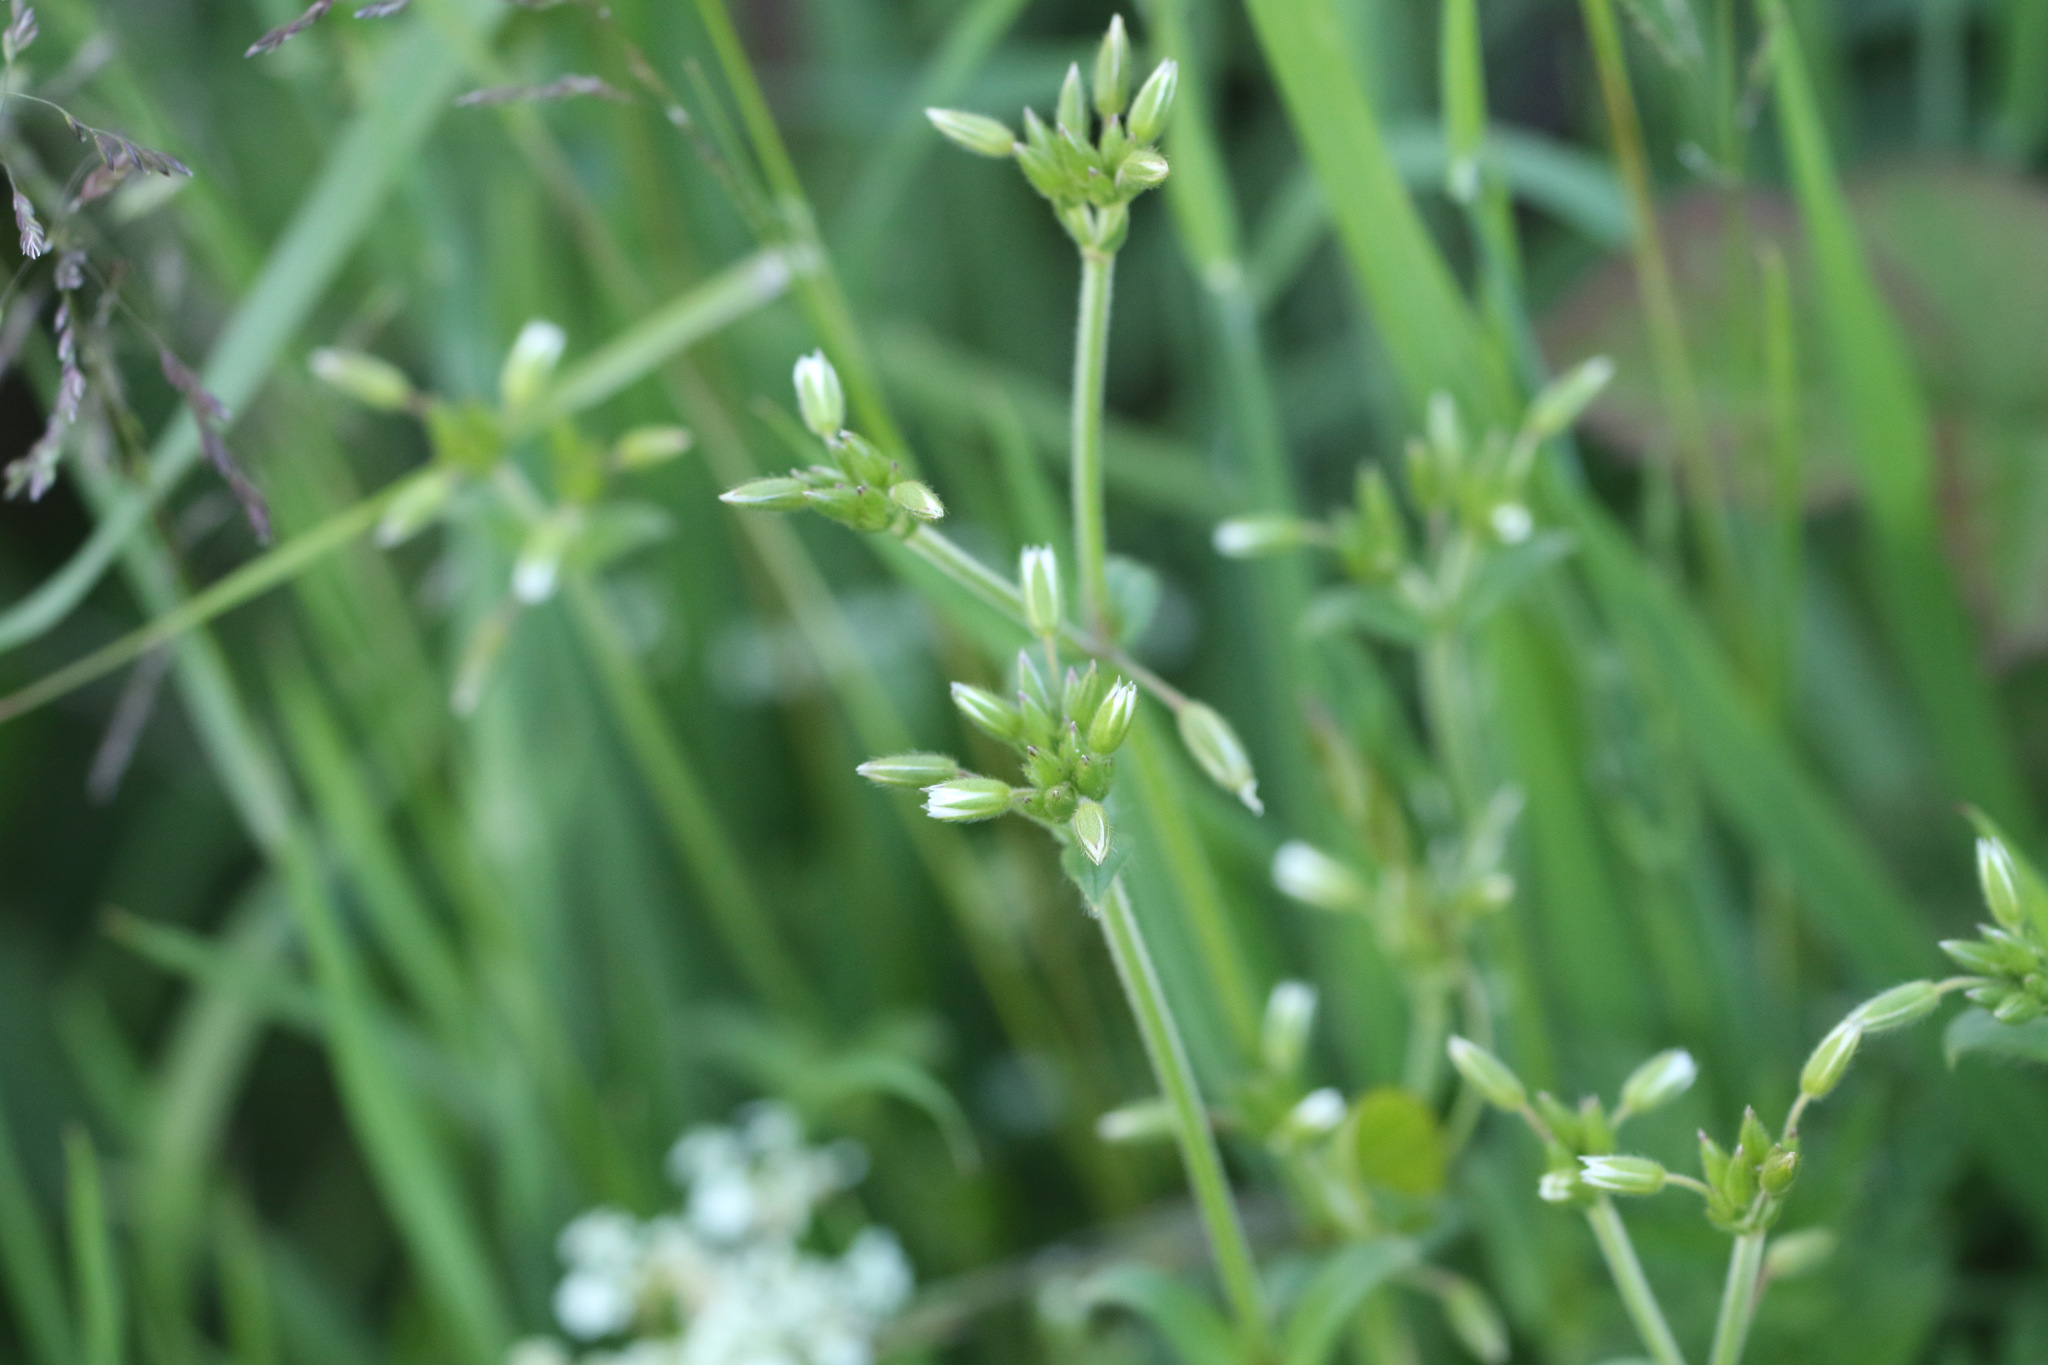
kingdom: Plantae
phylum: Tracheophyta
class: Magnoliopsida
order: Caryophyllales
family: Caryophyllaceae
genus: Cerastium
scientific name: Cerastium glomeratum
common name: Sticky chickweed
